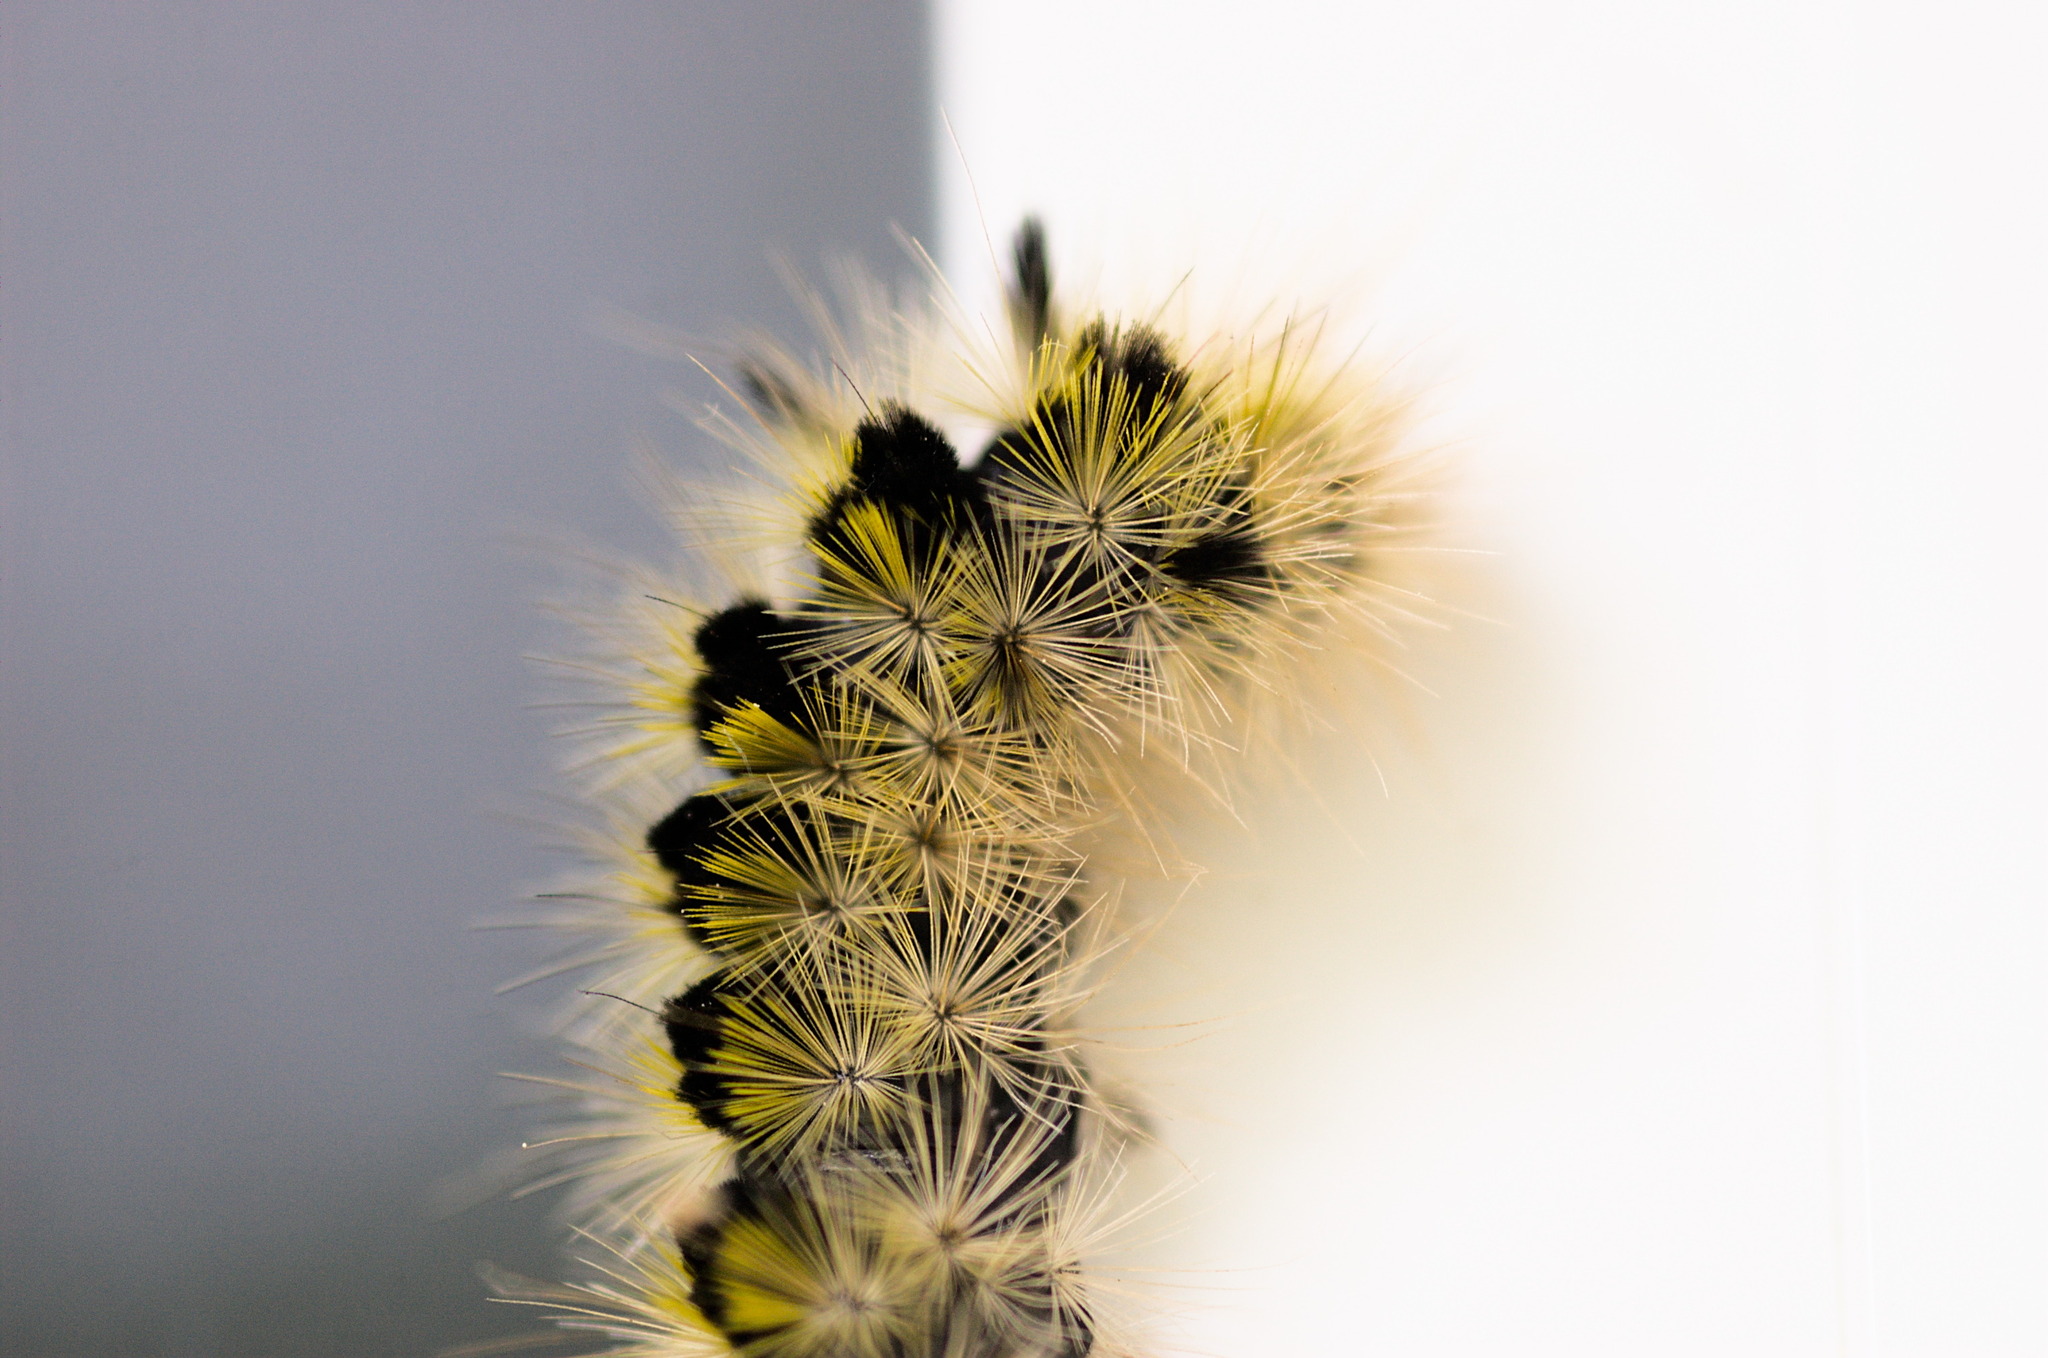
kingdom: Animalia
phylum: Arthropoda
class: Insecta
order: Lepidoptera
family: Erebidae
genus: Lophocampa
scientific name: Lophocampa argentata
